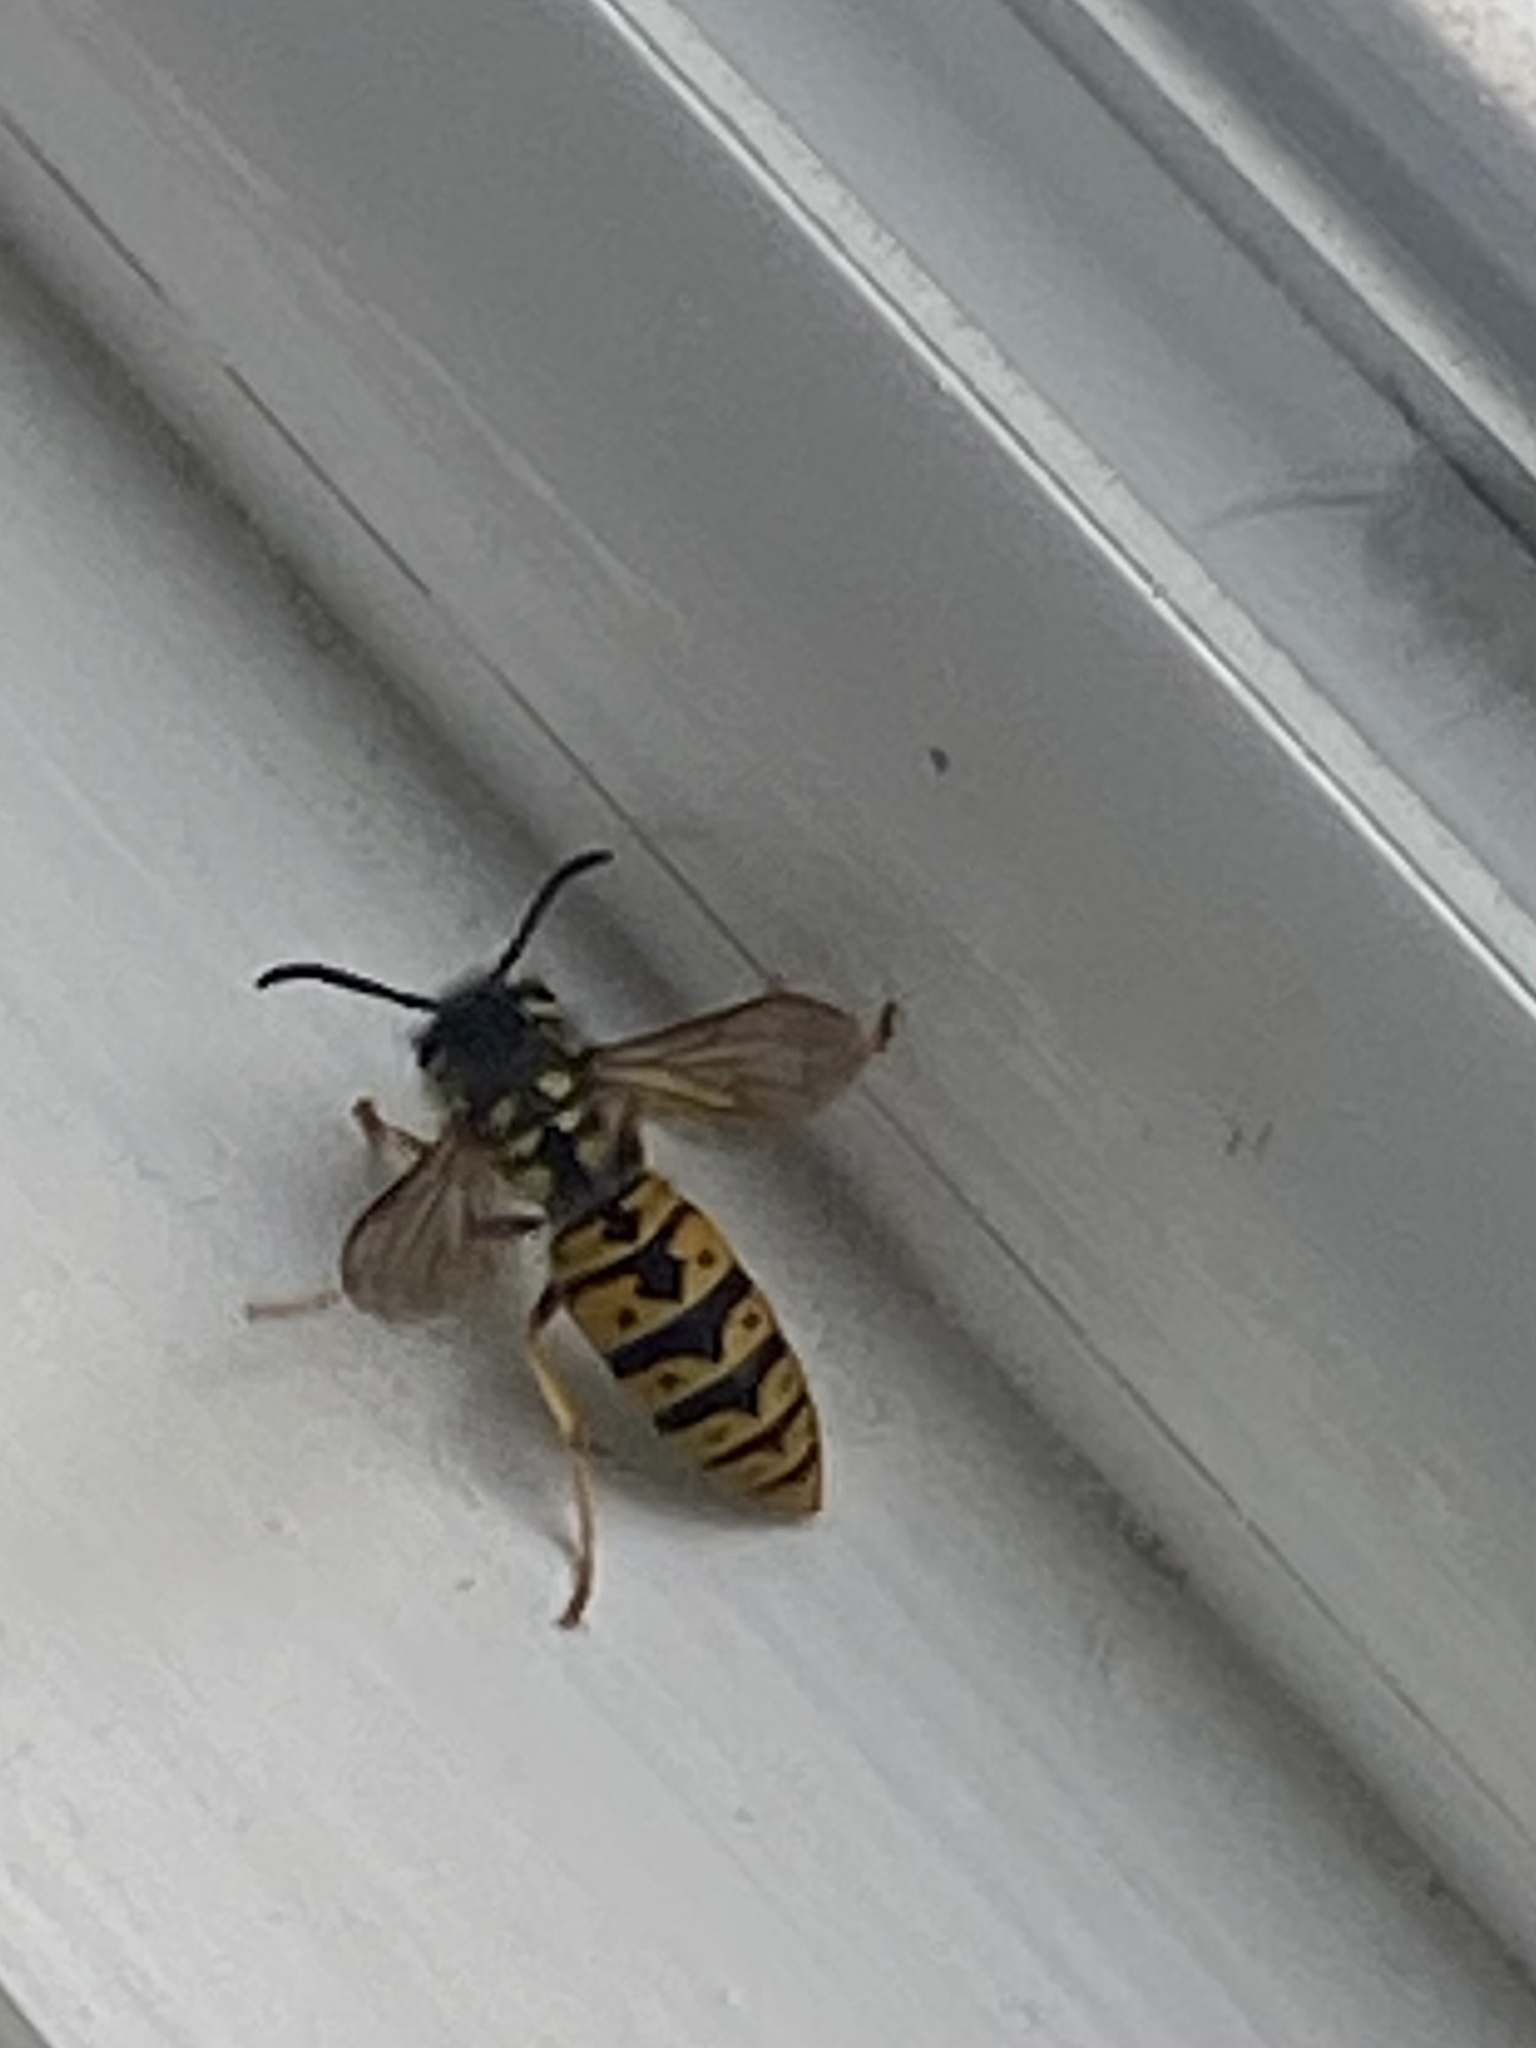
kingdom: Animalia
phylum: Arthropoda
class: Insecta
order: Hymenoptera
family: Vespidae
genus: Vespula
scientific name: Vespula germanica
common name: German wasp
